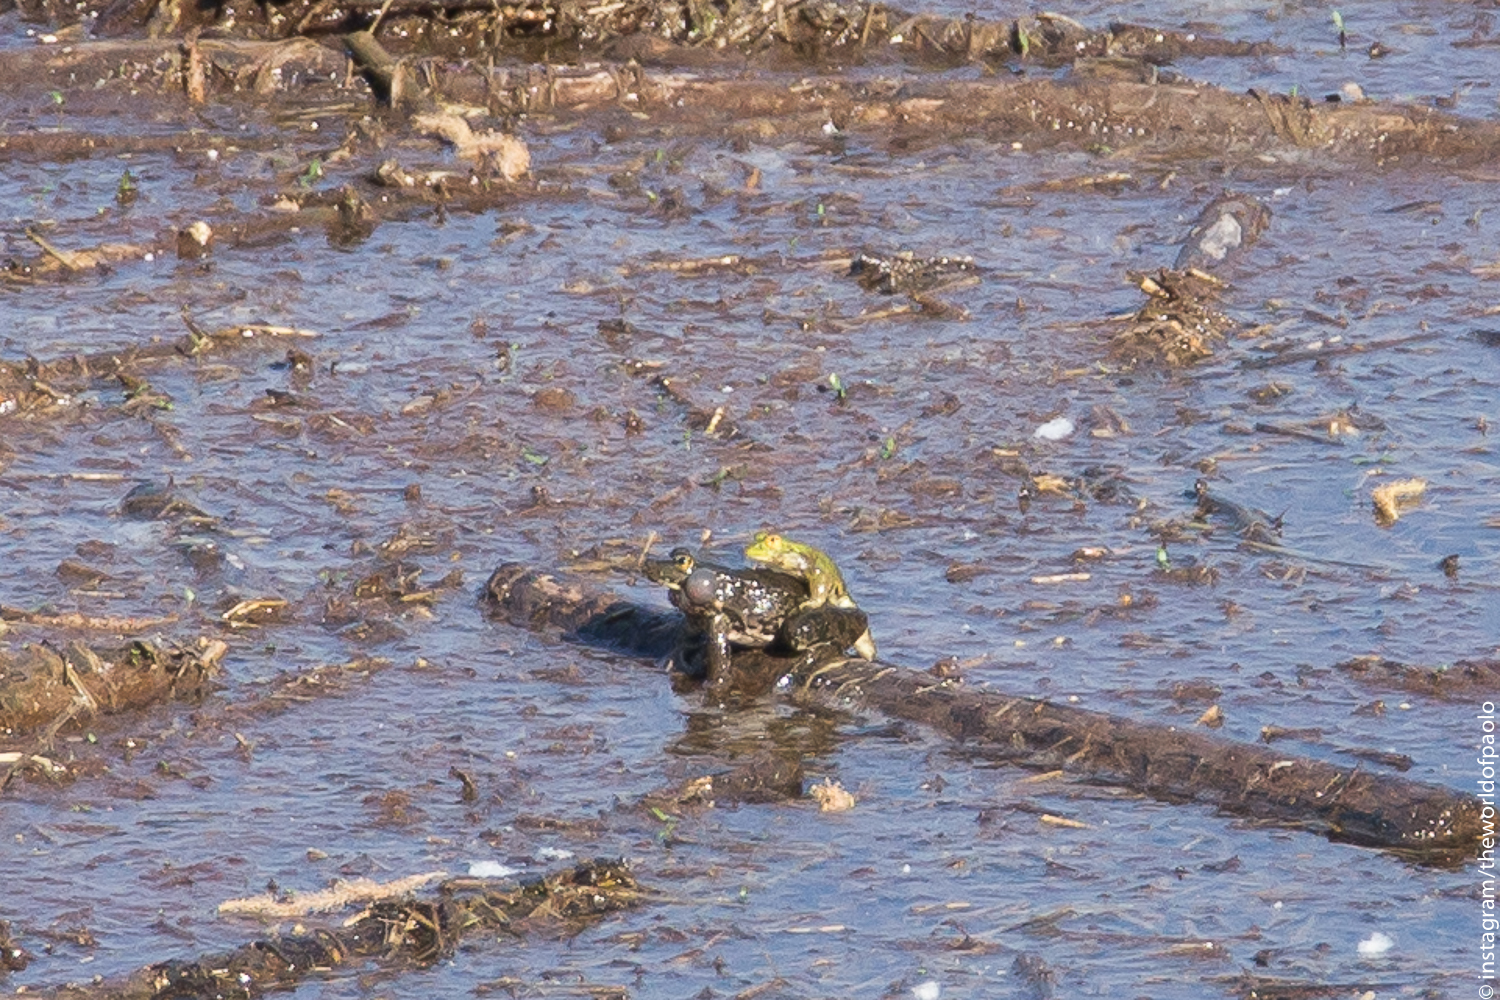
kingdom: Animalia
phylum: Chordata
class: Amphibia
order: Anura
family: Ranidae
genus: Pelophylax
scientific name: Pelophylax
